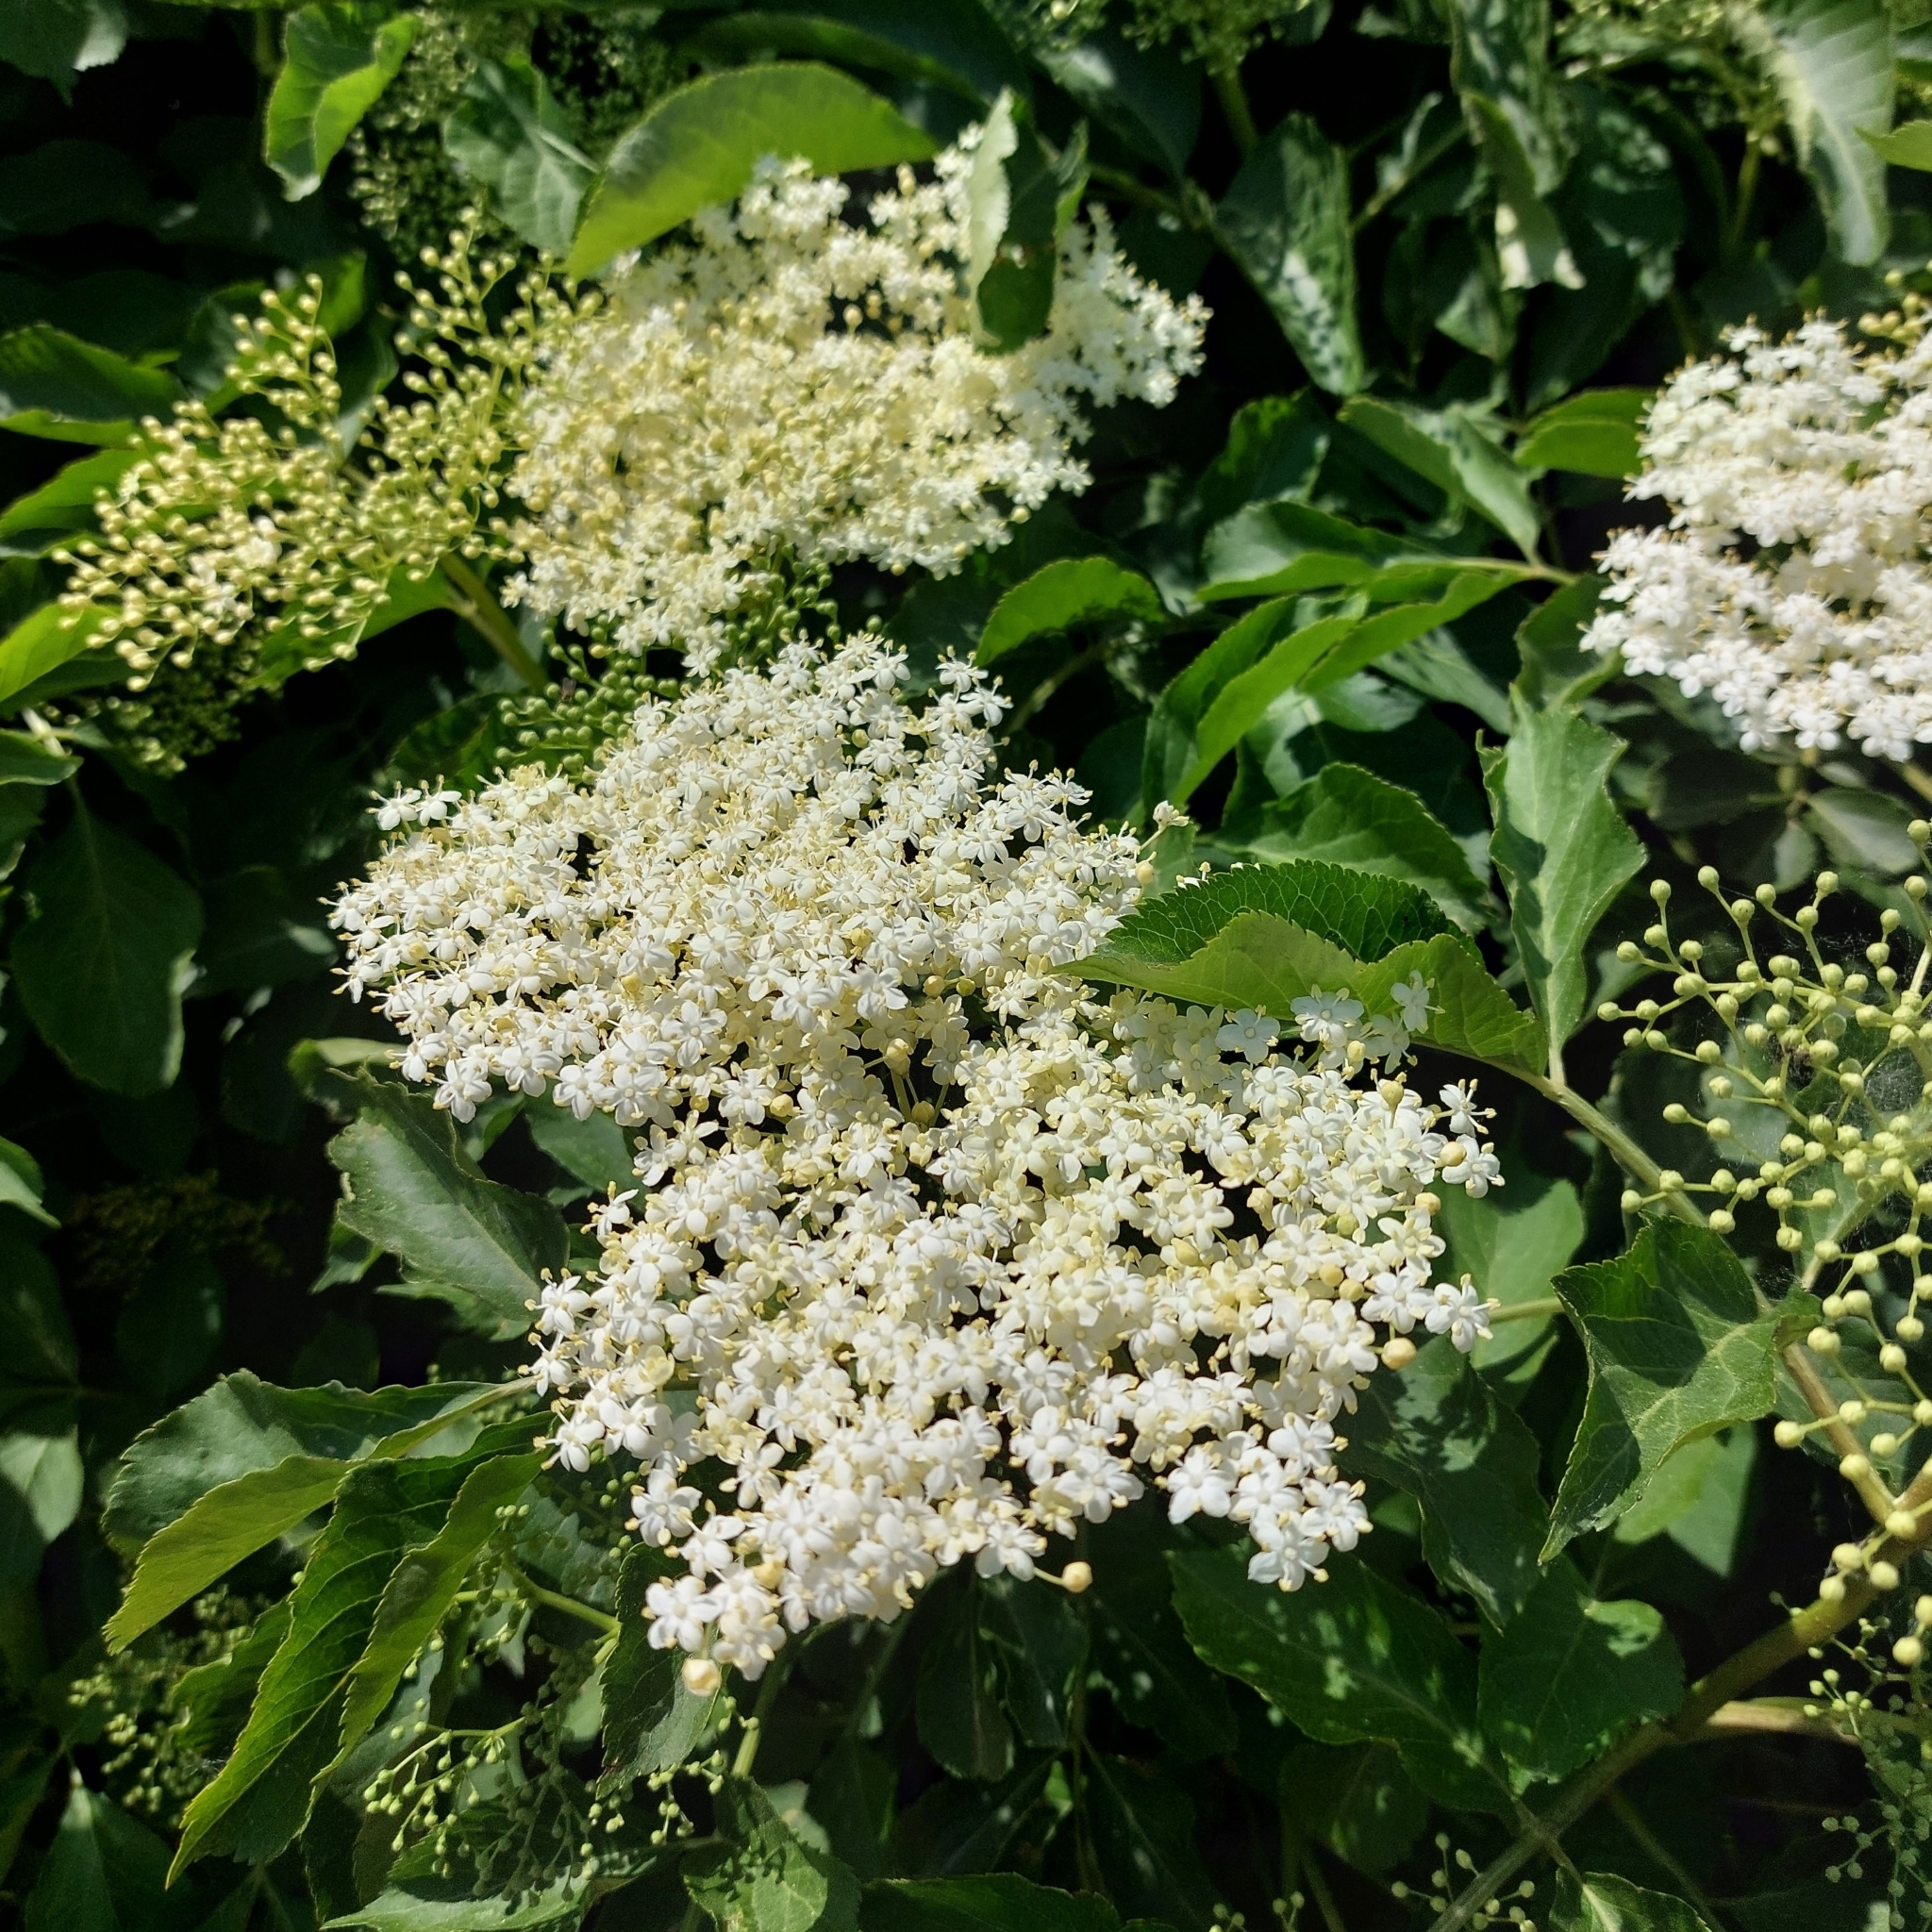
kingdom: Plantae
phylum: Tracheophyta
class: Magnoliopsida
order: Dipsacales
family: Viburnaceae
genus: Sambucus
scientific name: Sambucus nigra
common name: Elder
